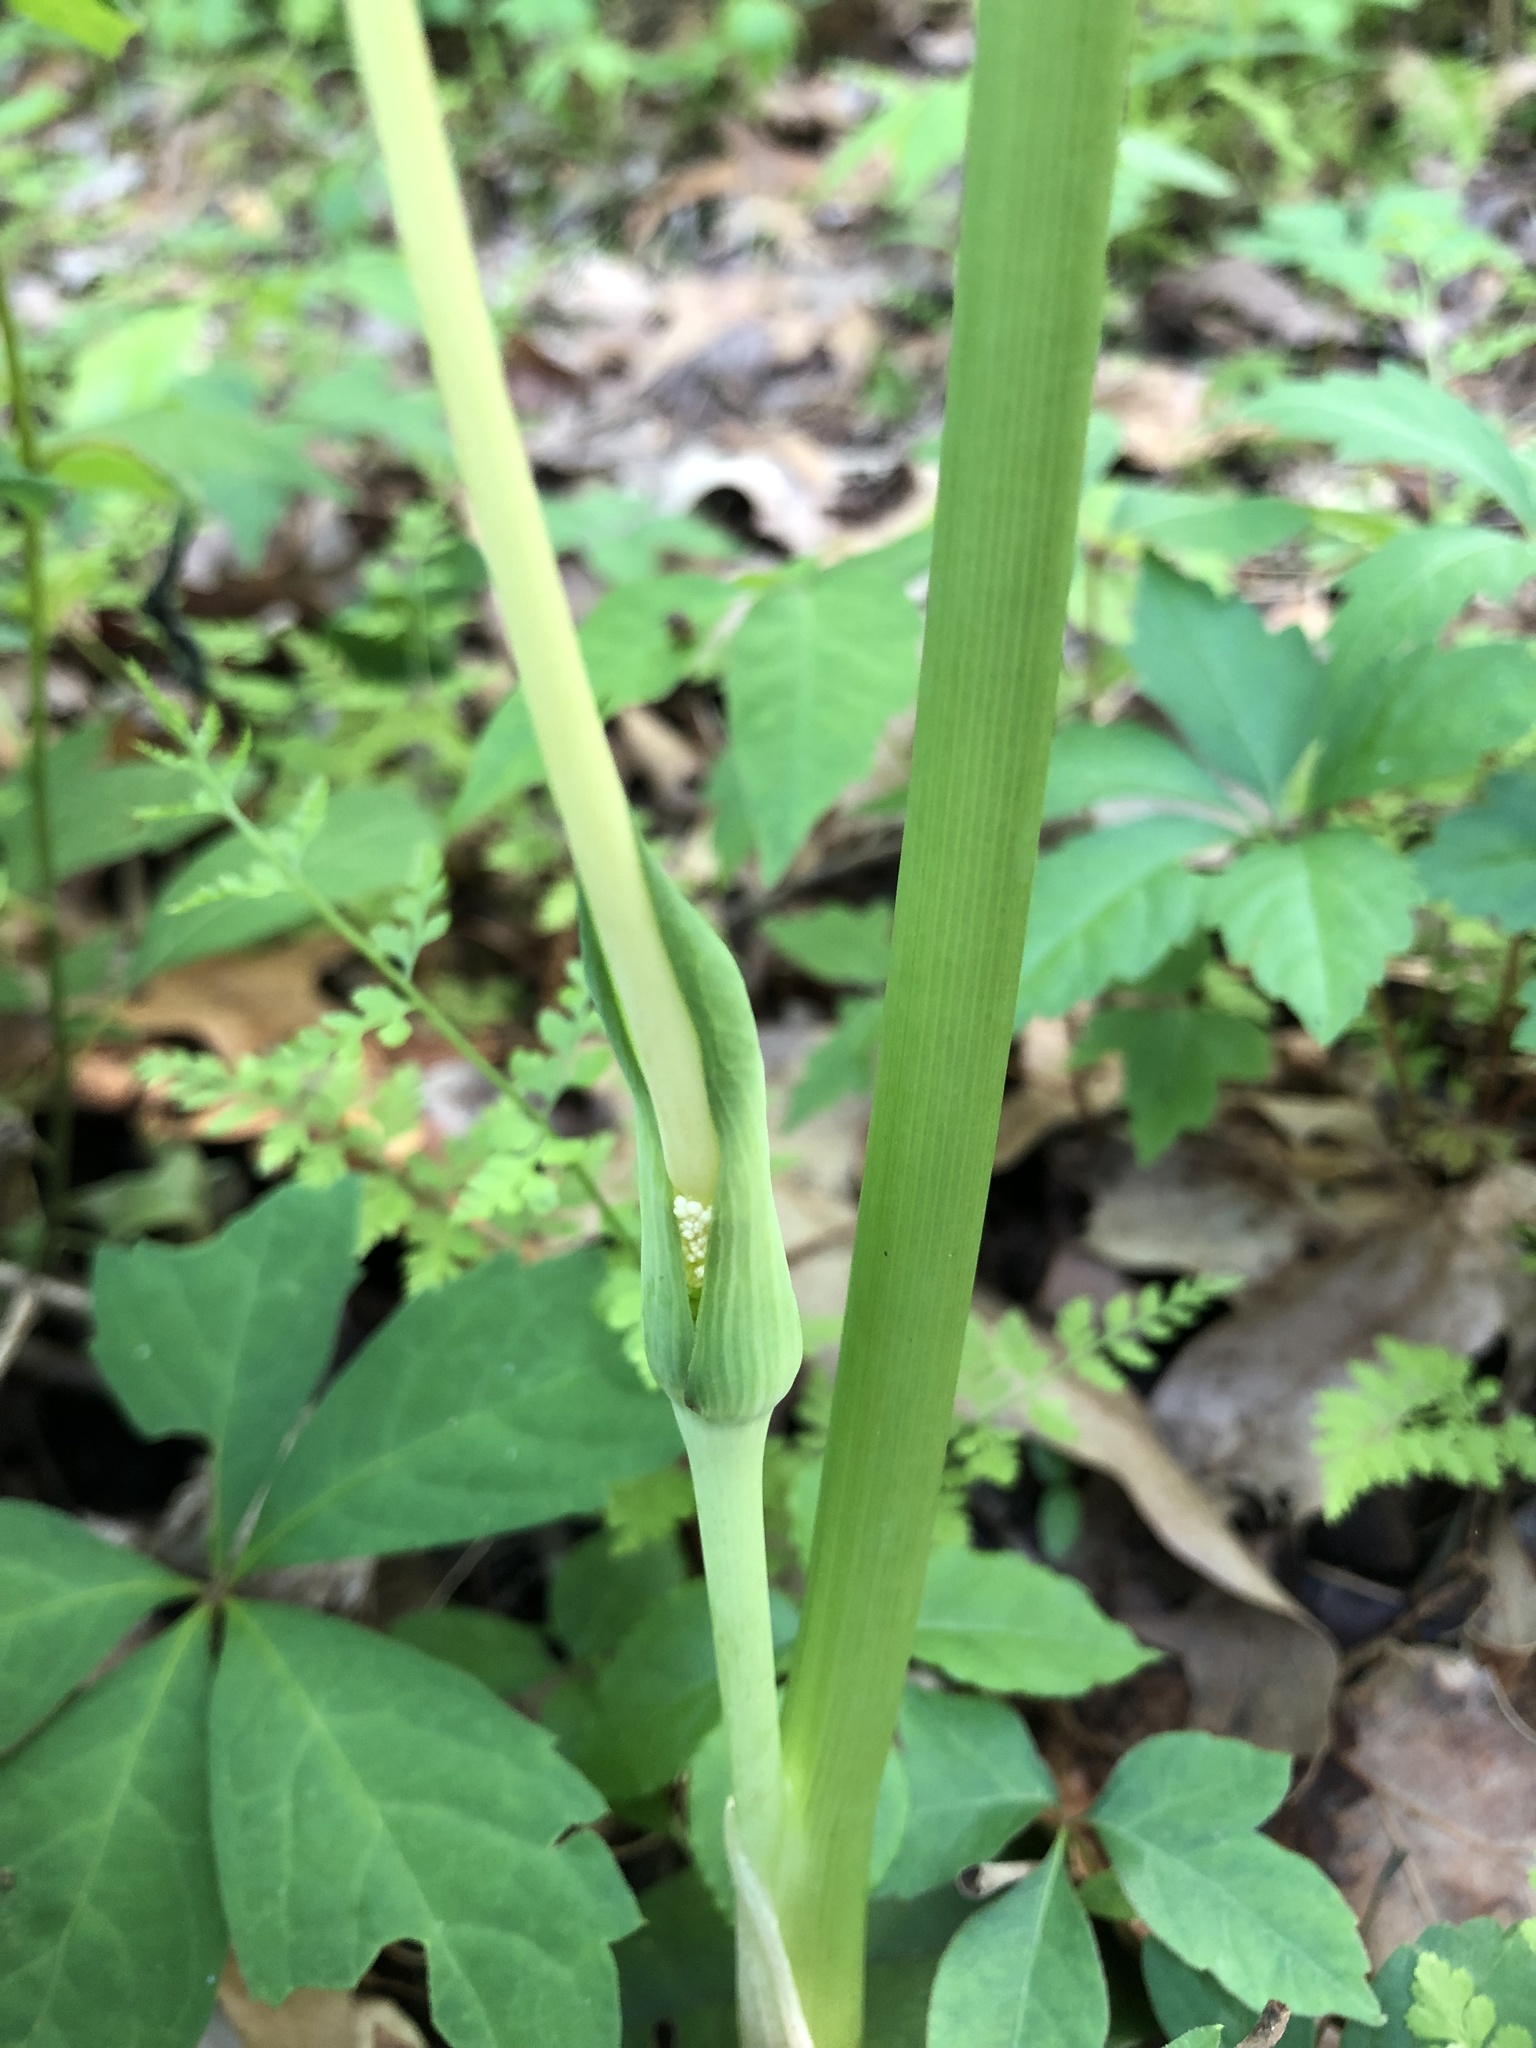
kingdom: Plantae
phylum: Tracheophyta
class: Liliopsida
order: Alismatales
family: Araceae
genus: Arisaema
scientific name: Arisaema dracontium
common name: Dragon-arum
